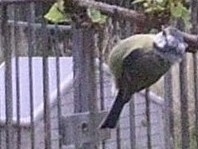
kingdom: Animalia
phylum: Chordata
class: Aves
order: Passeriformes
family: Paridae
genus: Cyanistes
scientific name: Cyanistes caeruleus
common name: Eurasian blue tit
